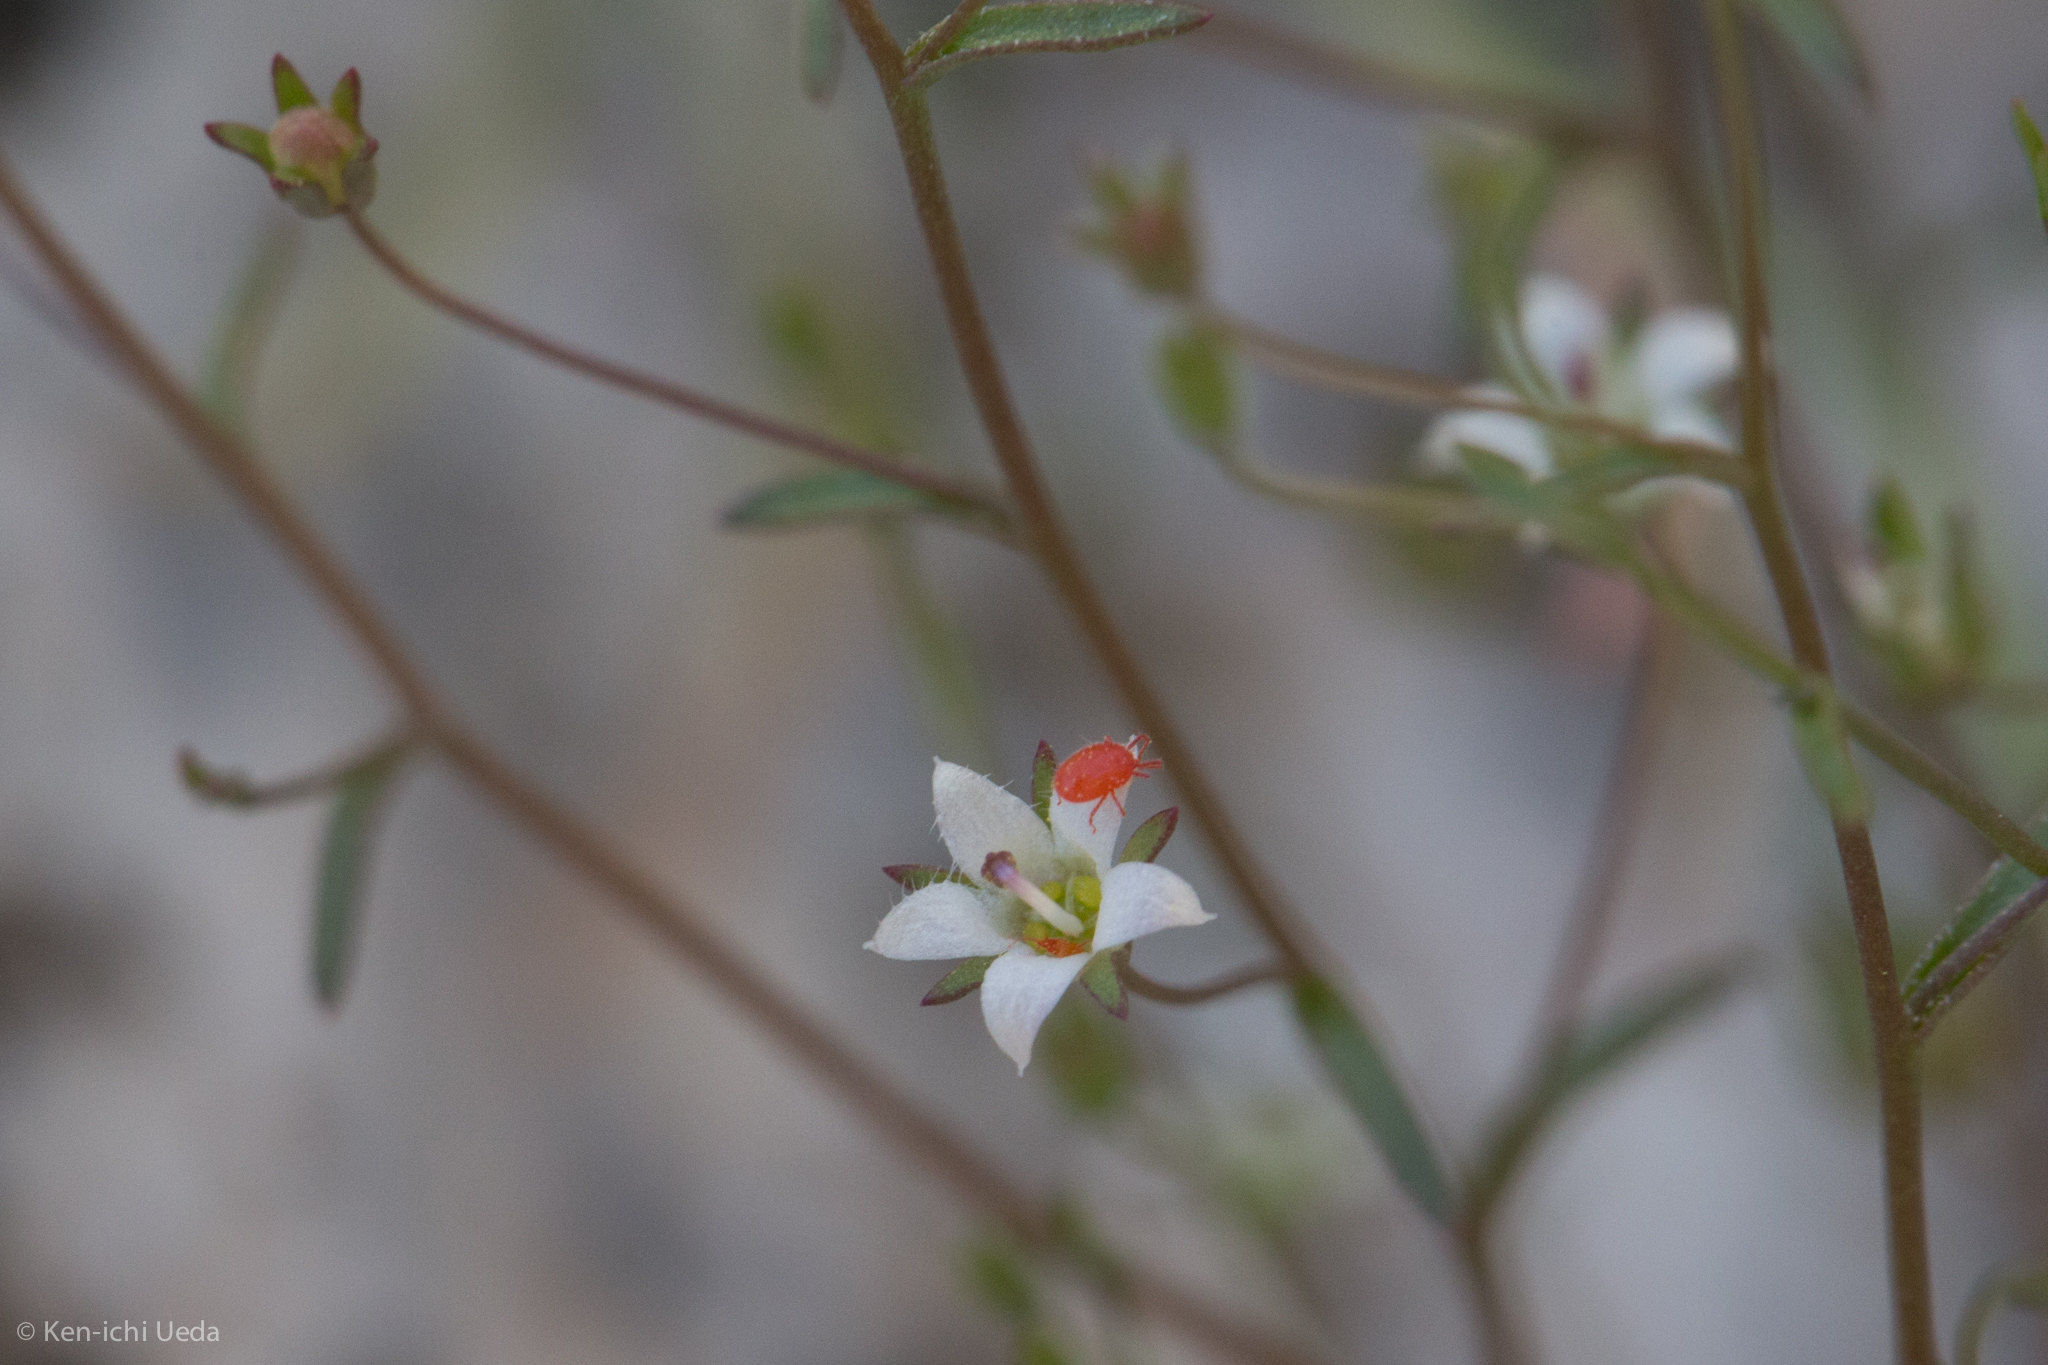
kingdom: Plantae
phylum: Tracheophyta
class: Magnoliopsida
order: Asterales
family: Campanulaceae
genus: Nemacladus
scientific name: Nemacladus glanduliferus
